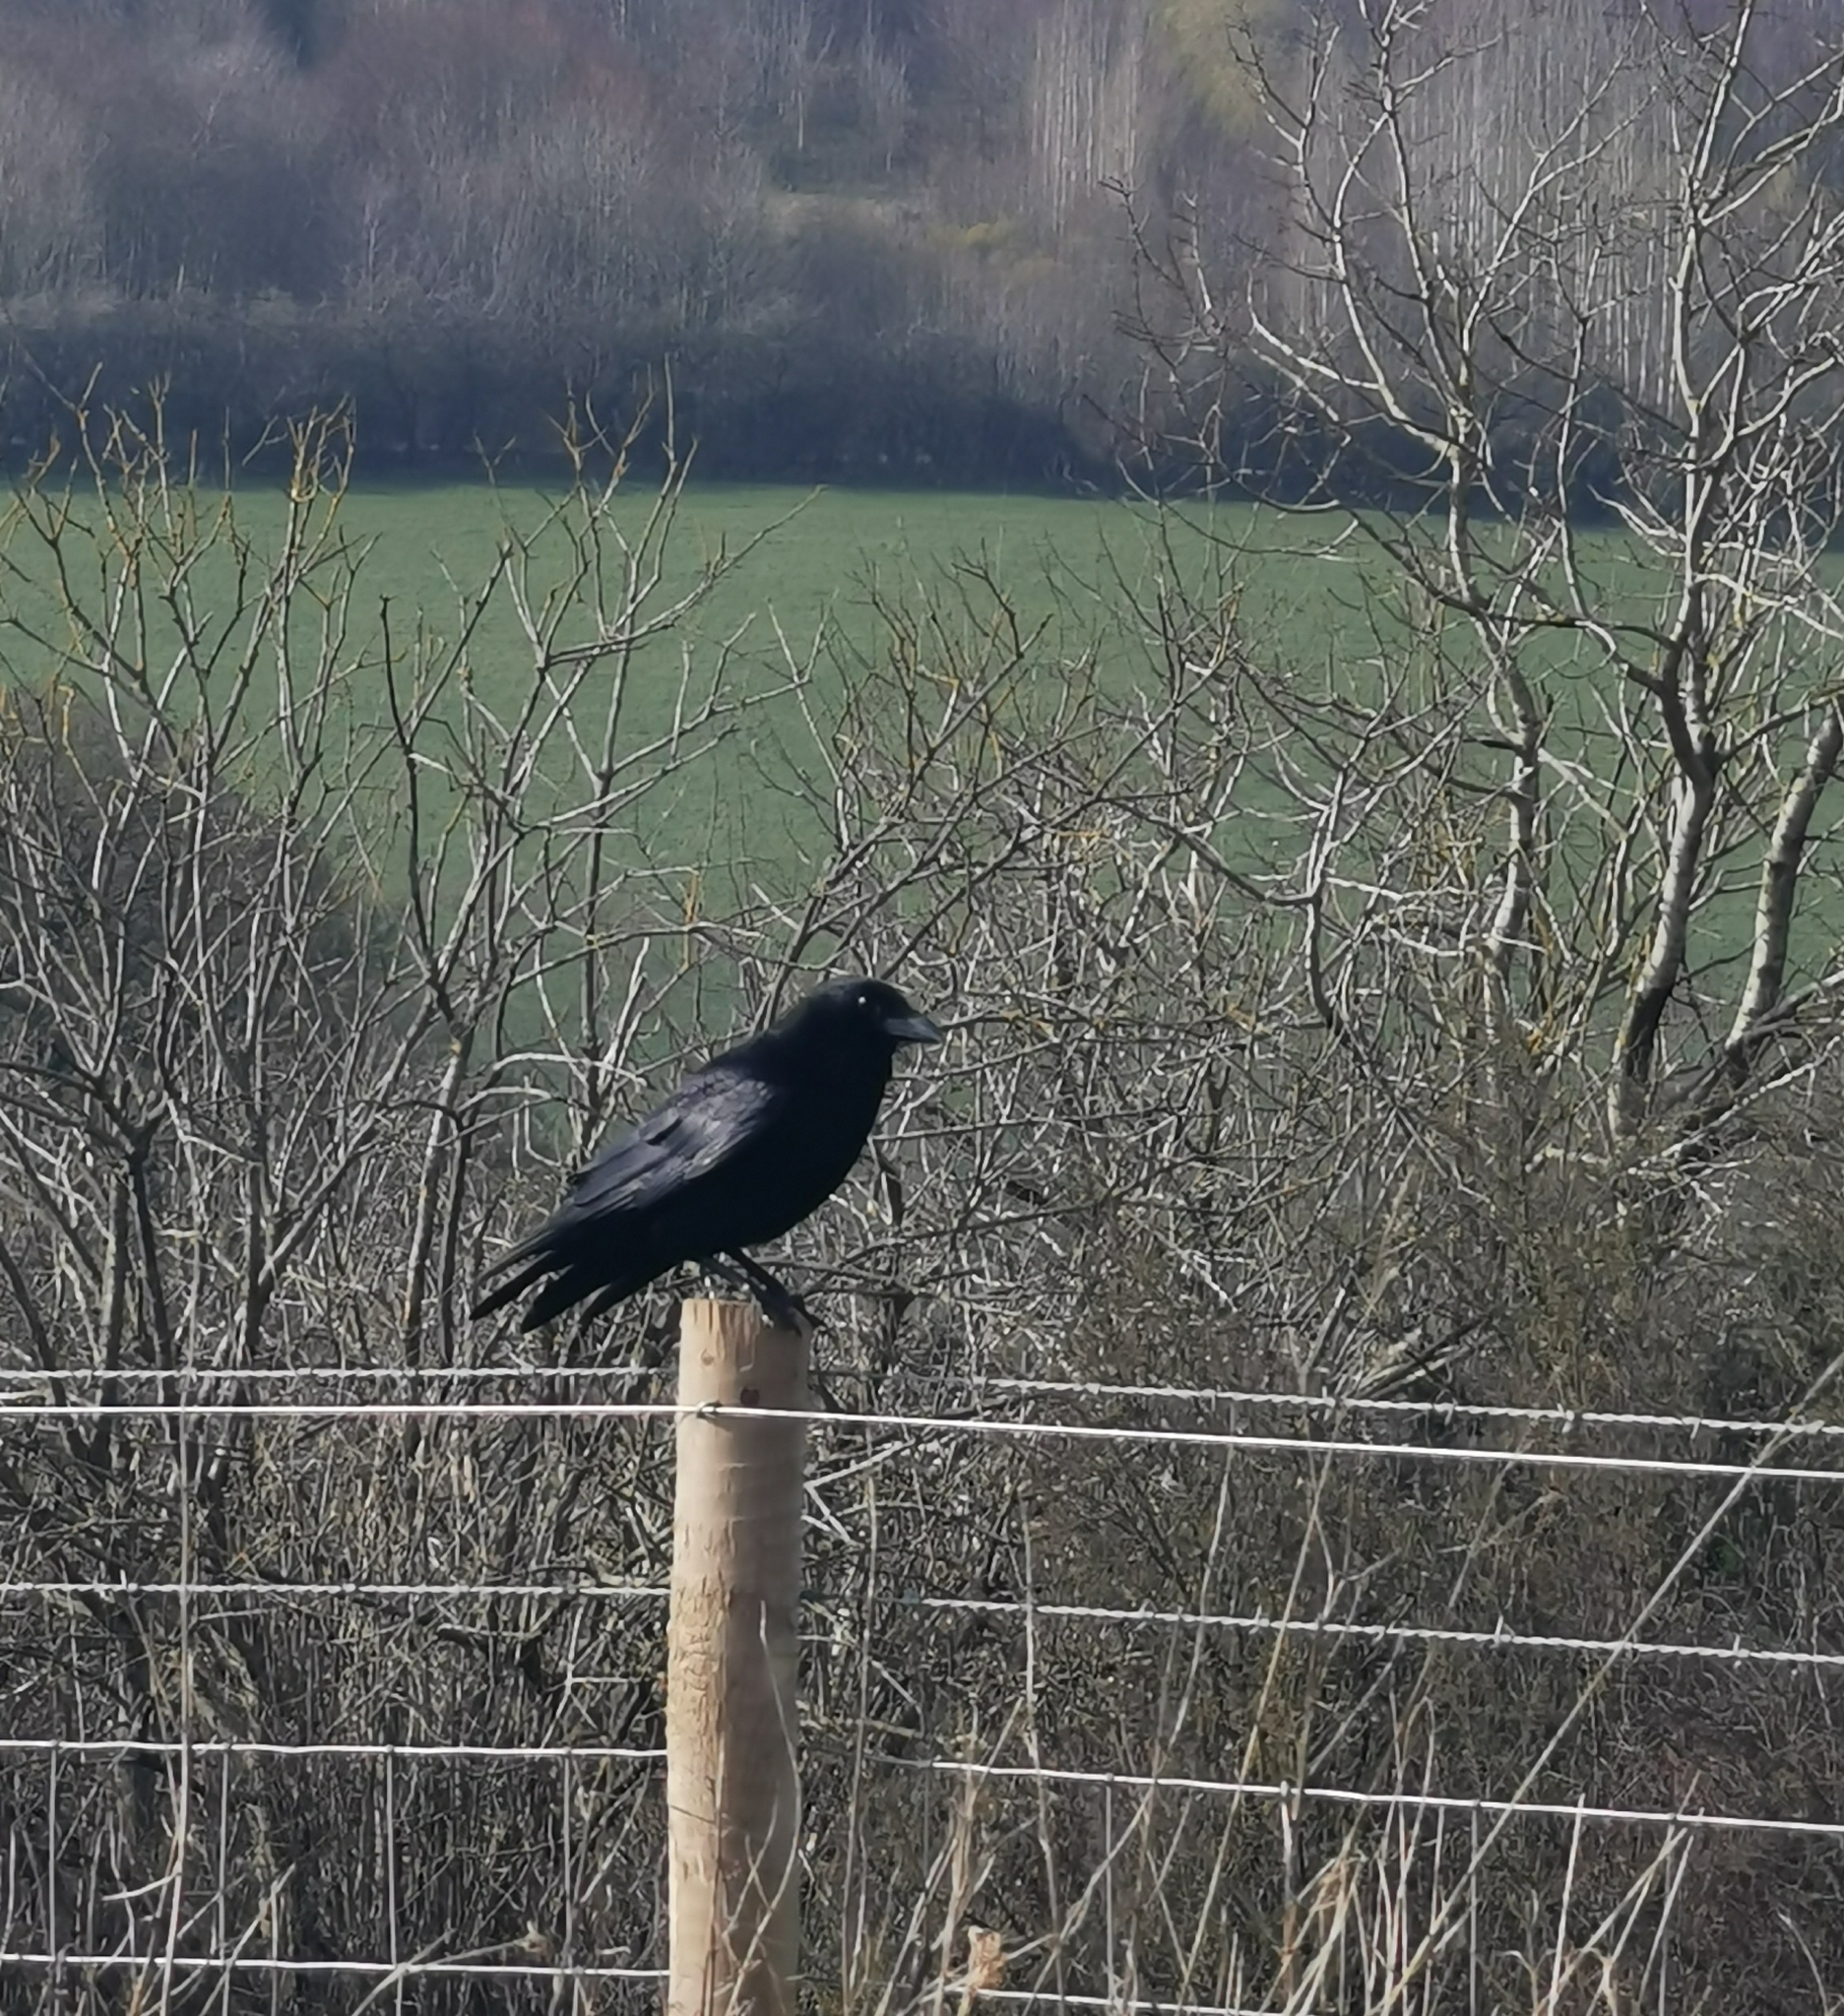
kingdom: Animalia
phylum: Chordata
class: Aves
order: Passeriformes
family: Corvidae
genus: Corvus
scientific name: Corvus corone
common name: Carrion crow
